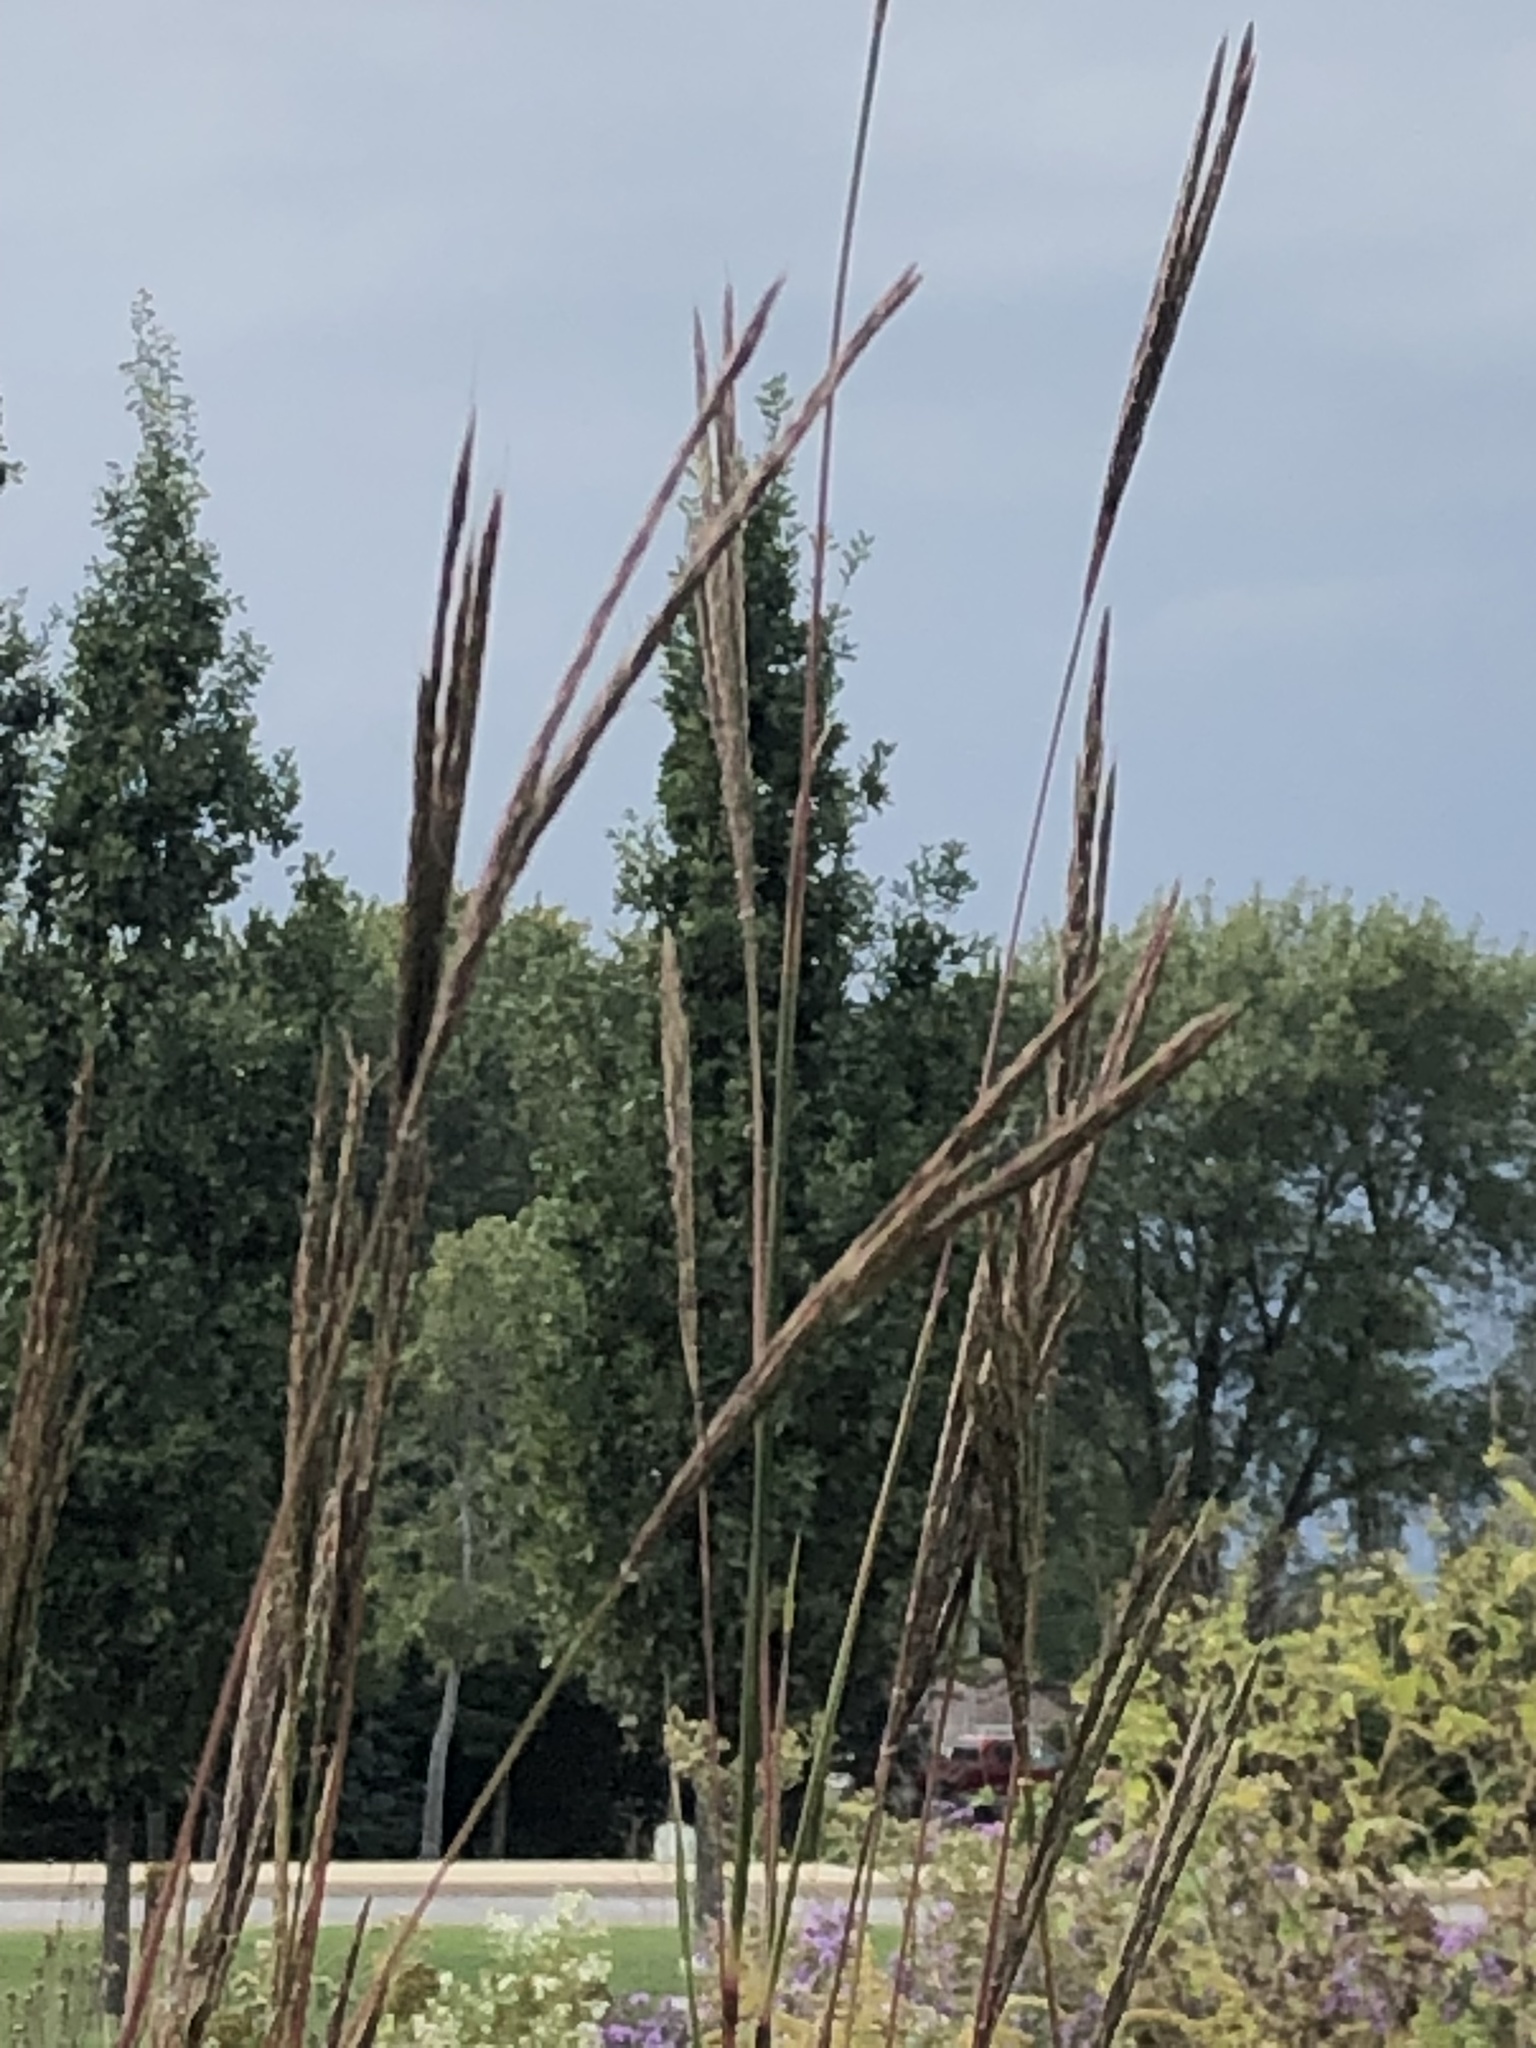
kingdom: Plantae
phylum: Tracheophyta
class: Liliopsida
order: Poales
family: Poaceae
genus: Andropogon
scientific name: Andropogon gerardi
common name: Big bluestem
